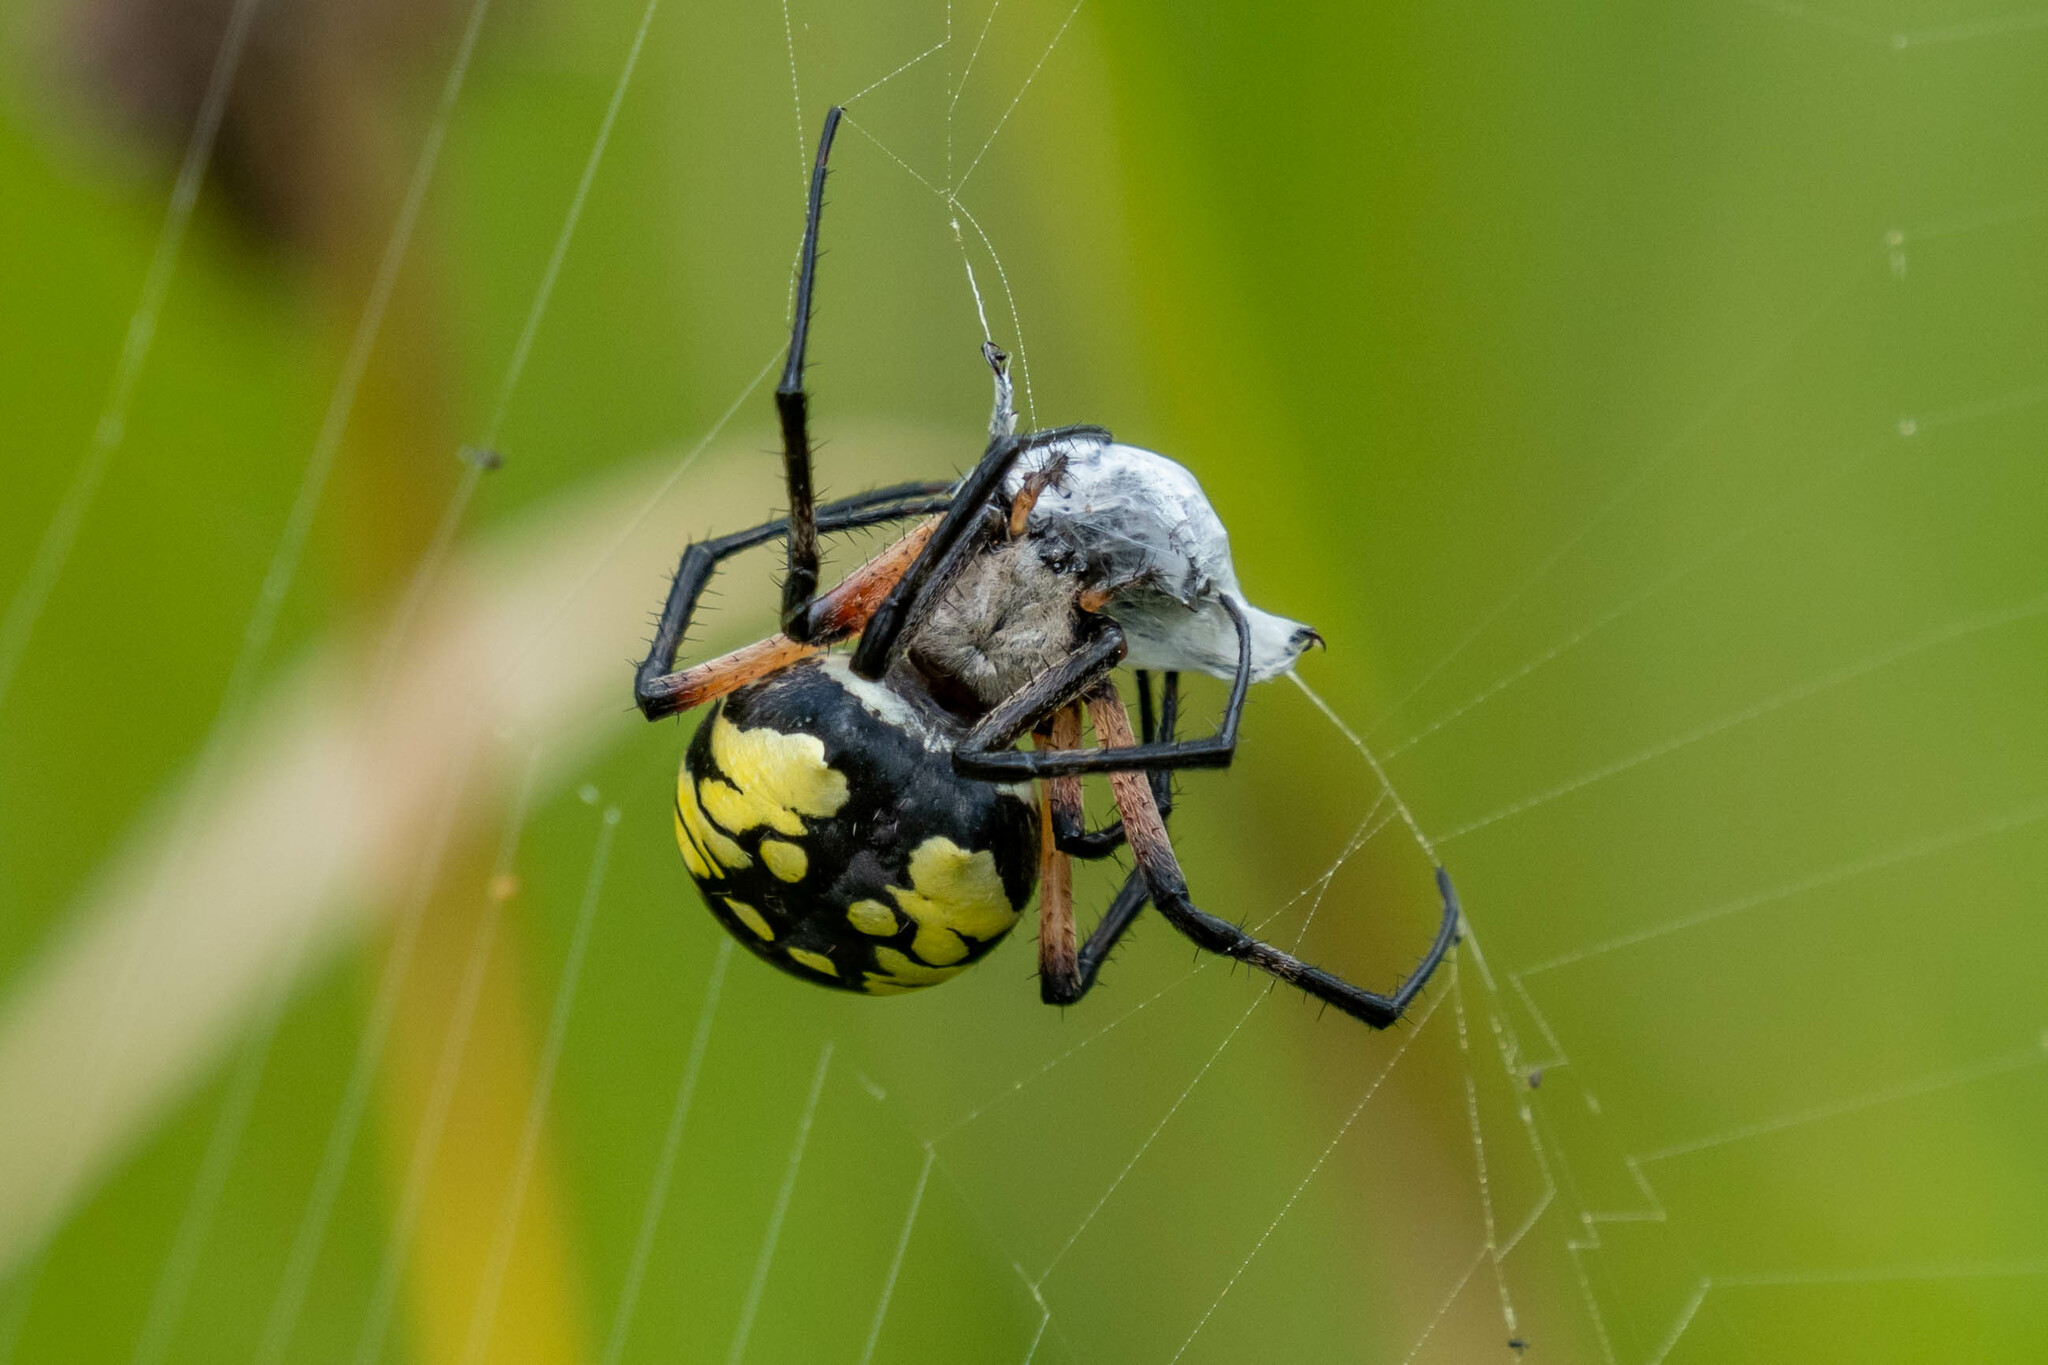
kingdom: Animalia
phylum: Arthropoda
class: Arachnida
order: Araneae
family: Araneidae
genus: Argiope
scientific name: Argiope aurantia
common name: Orb weavers
